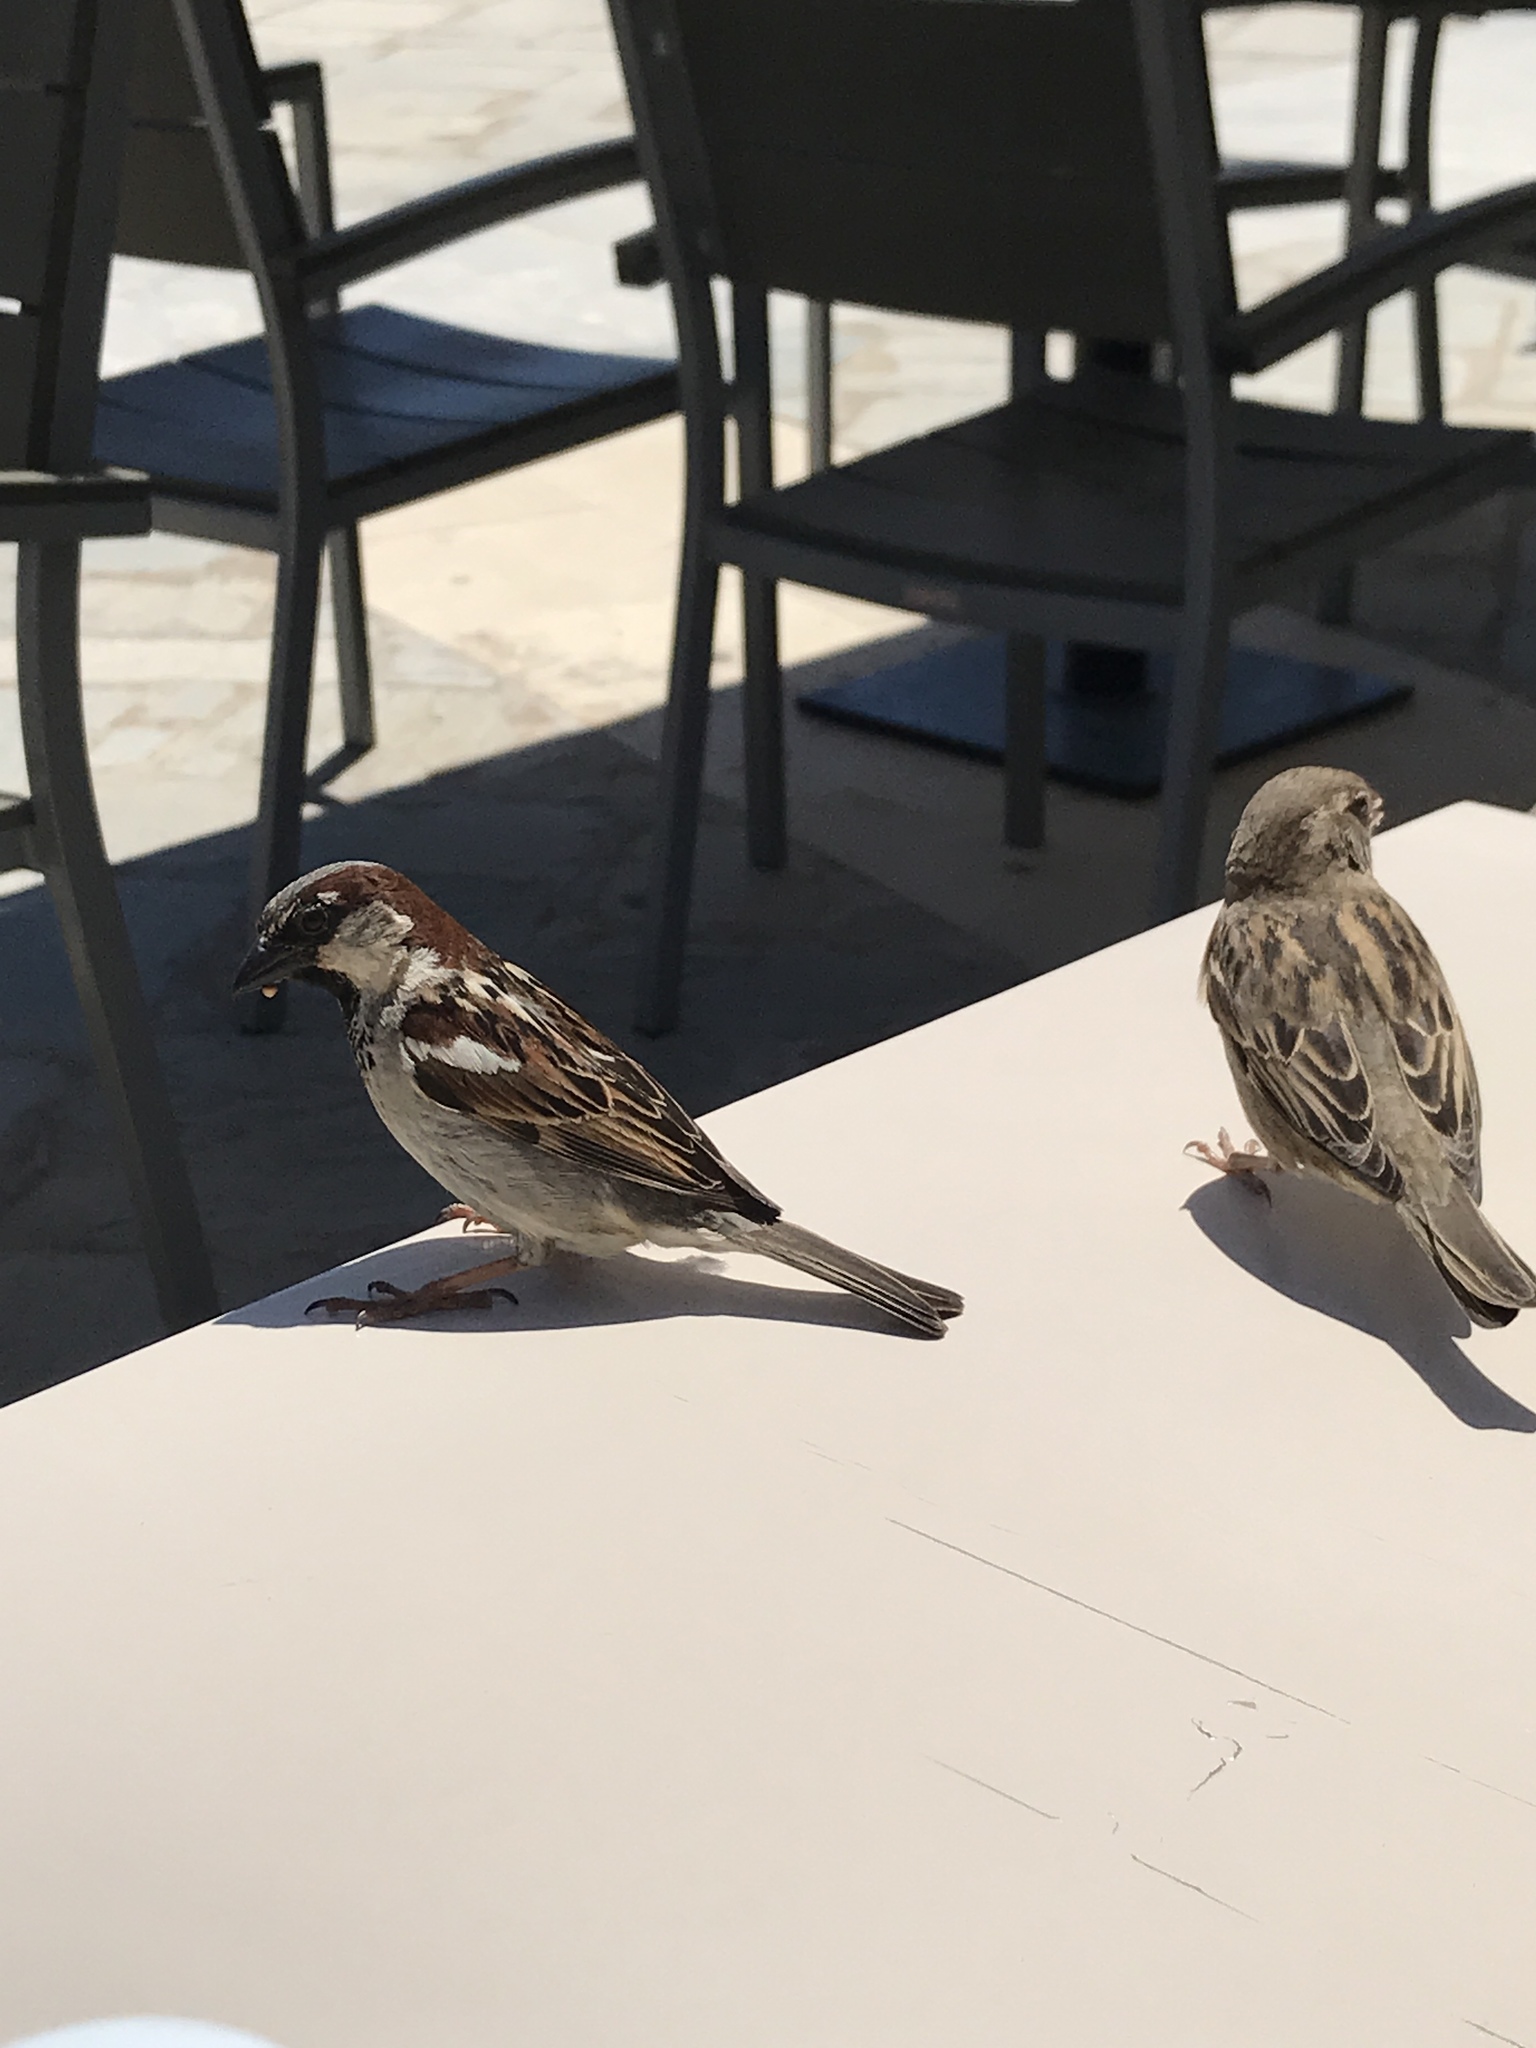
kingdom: Animalia
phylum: Chordata
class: Aves
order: Passeriformes
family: Passeridae
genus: Passer
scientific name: Passer domesticus
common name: House sparrow
